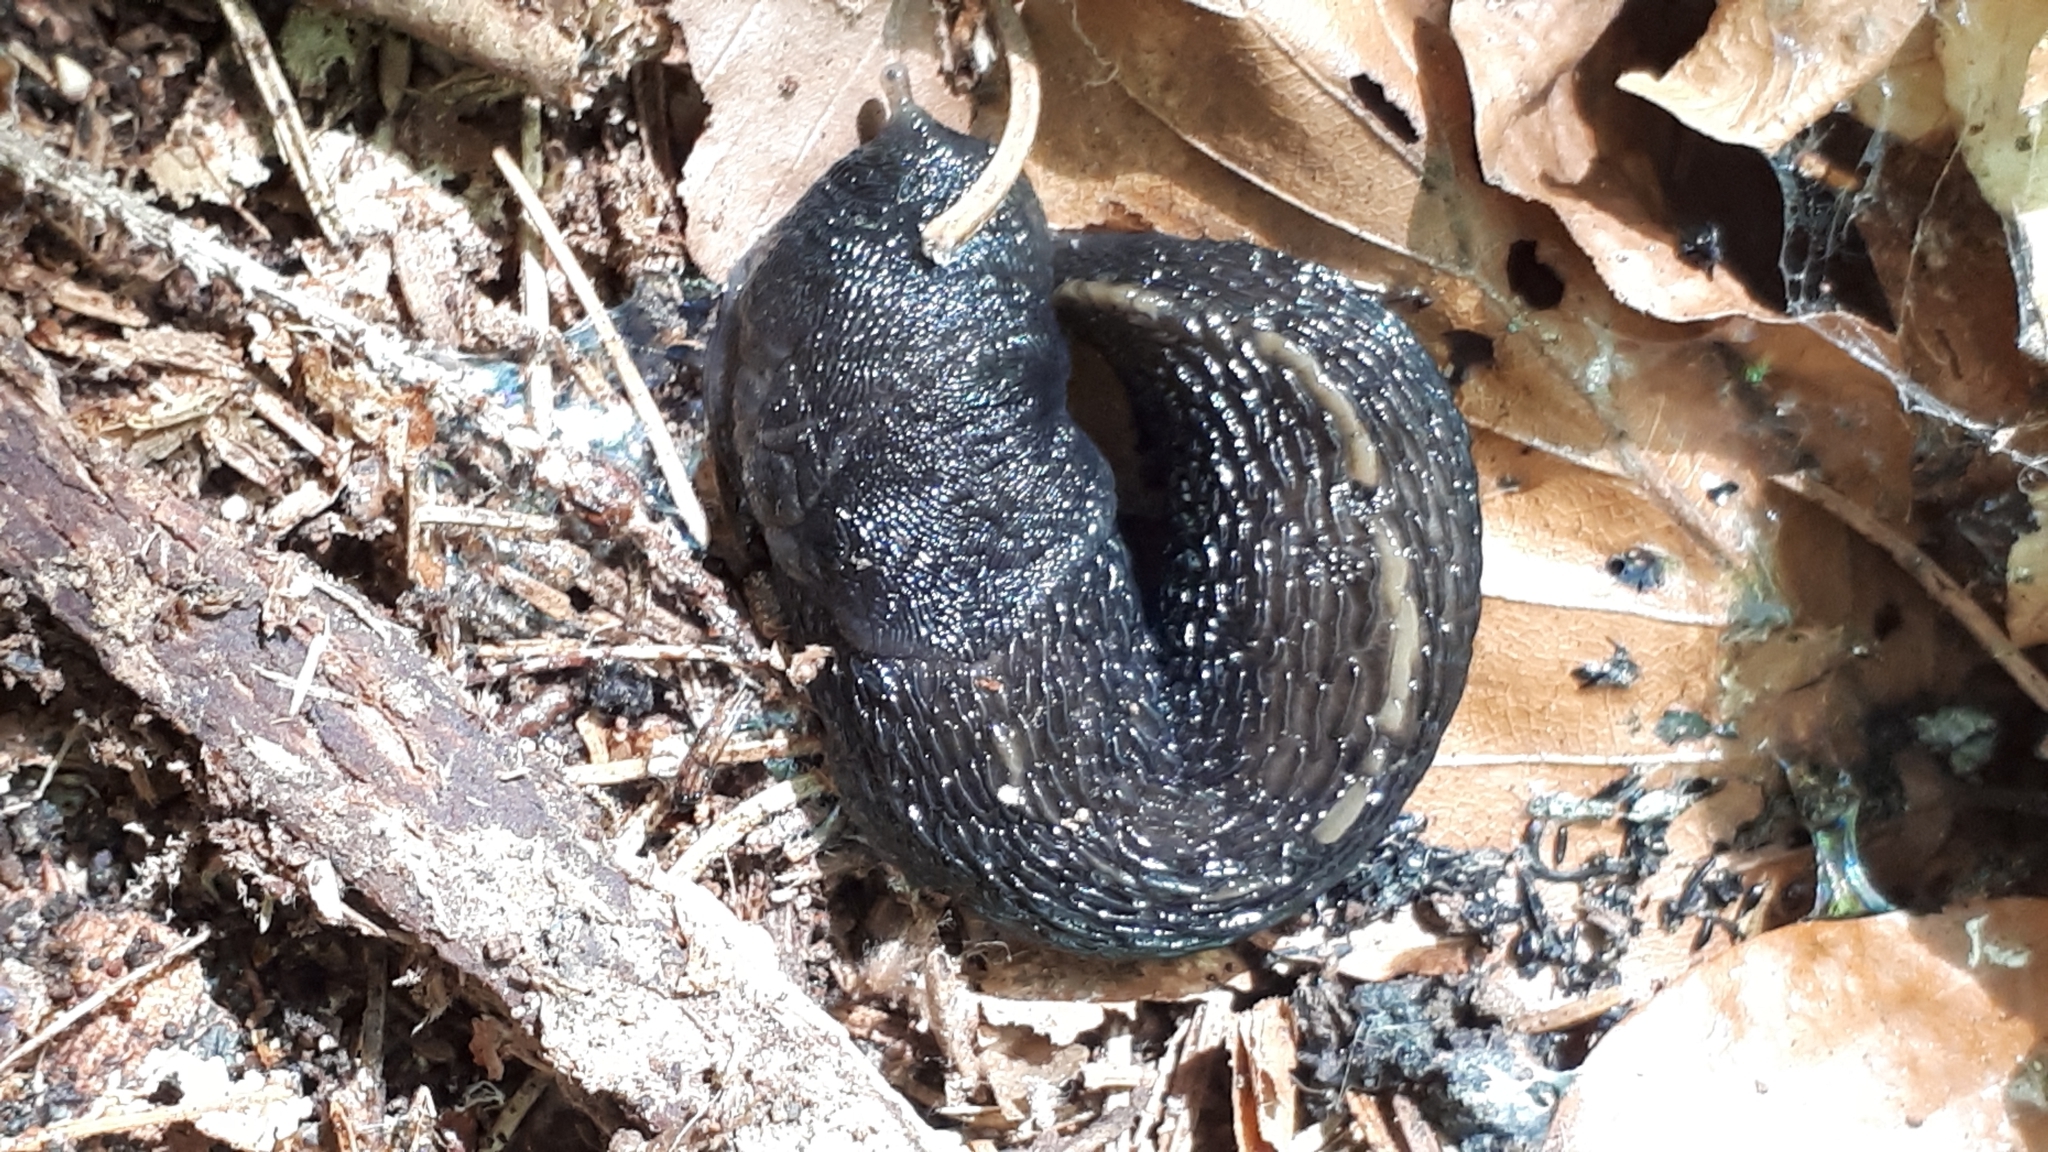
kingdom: Animalia
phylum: Mollusca
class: Gastropoda
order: Stylommatophora
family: Limacidae
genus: Limax
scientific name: Limax cinereoniger
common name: Ash-black slug
